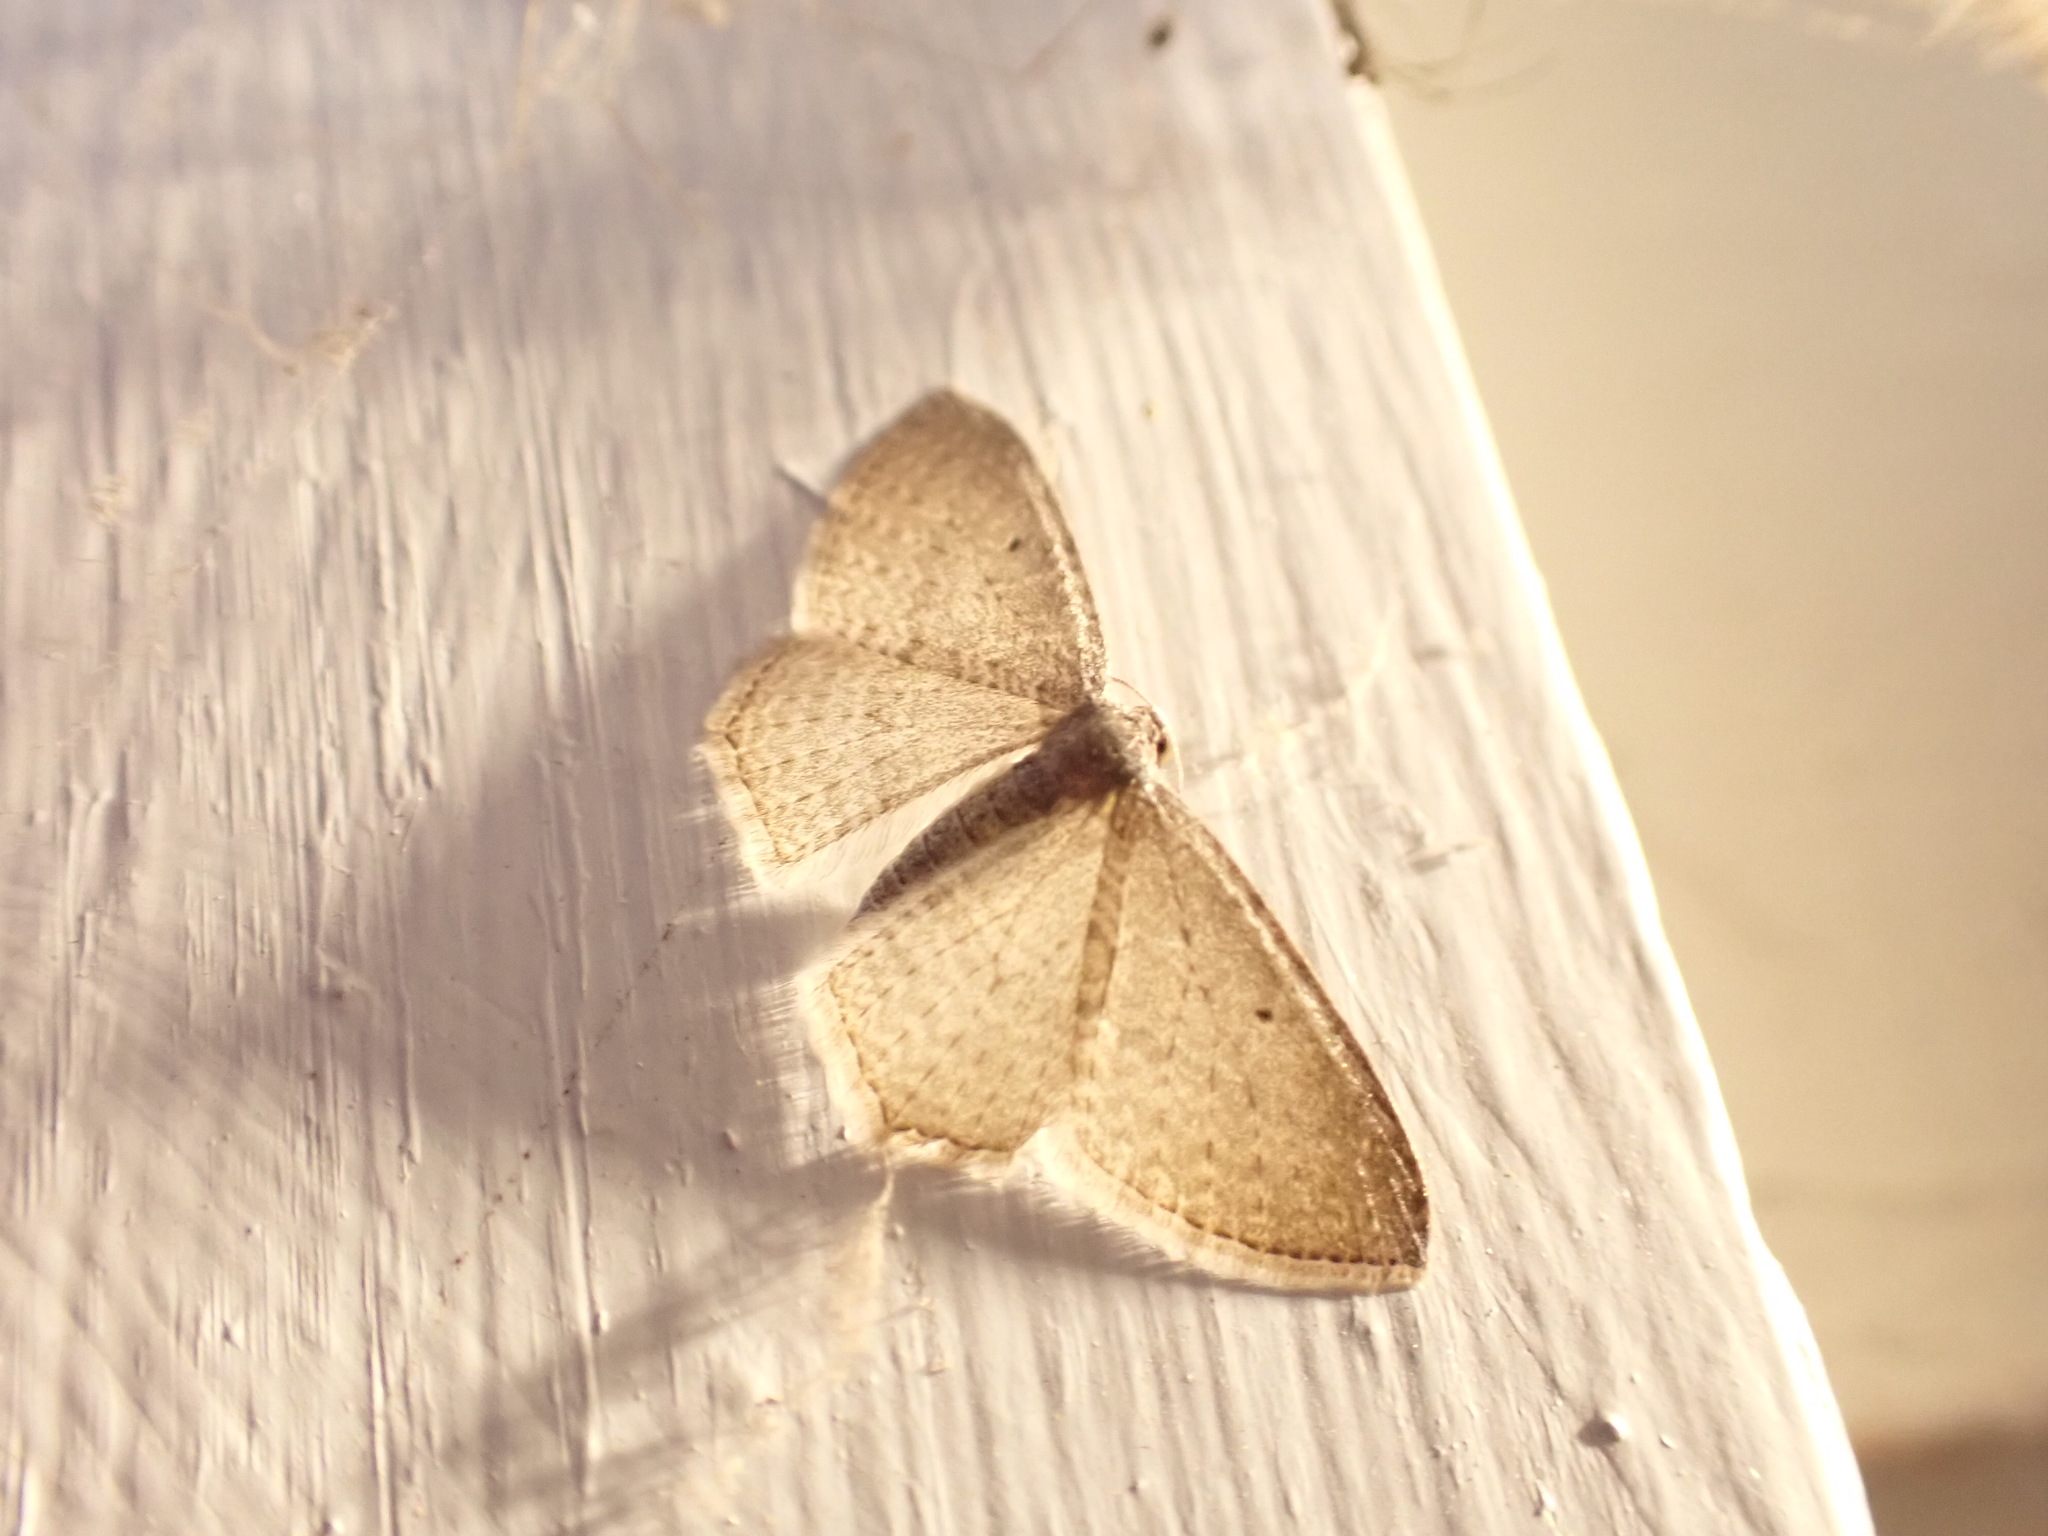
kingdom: Animalia
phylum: Arthropoda
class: Insecta
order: Lepidoptera
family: Geometridae
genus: Poecilasthena
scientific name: Poecilasthena pulchraria
